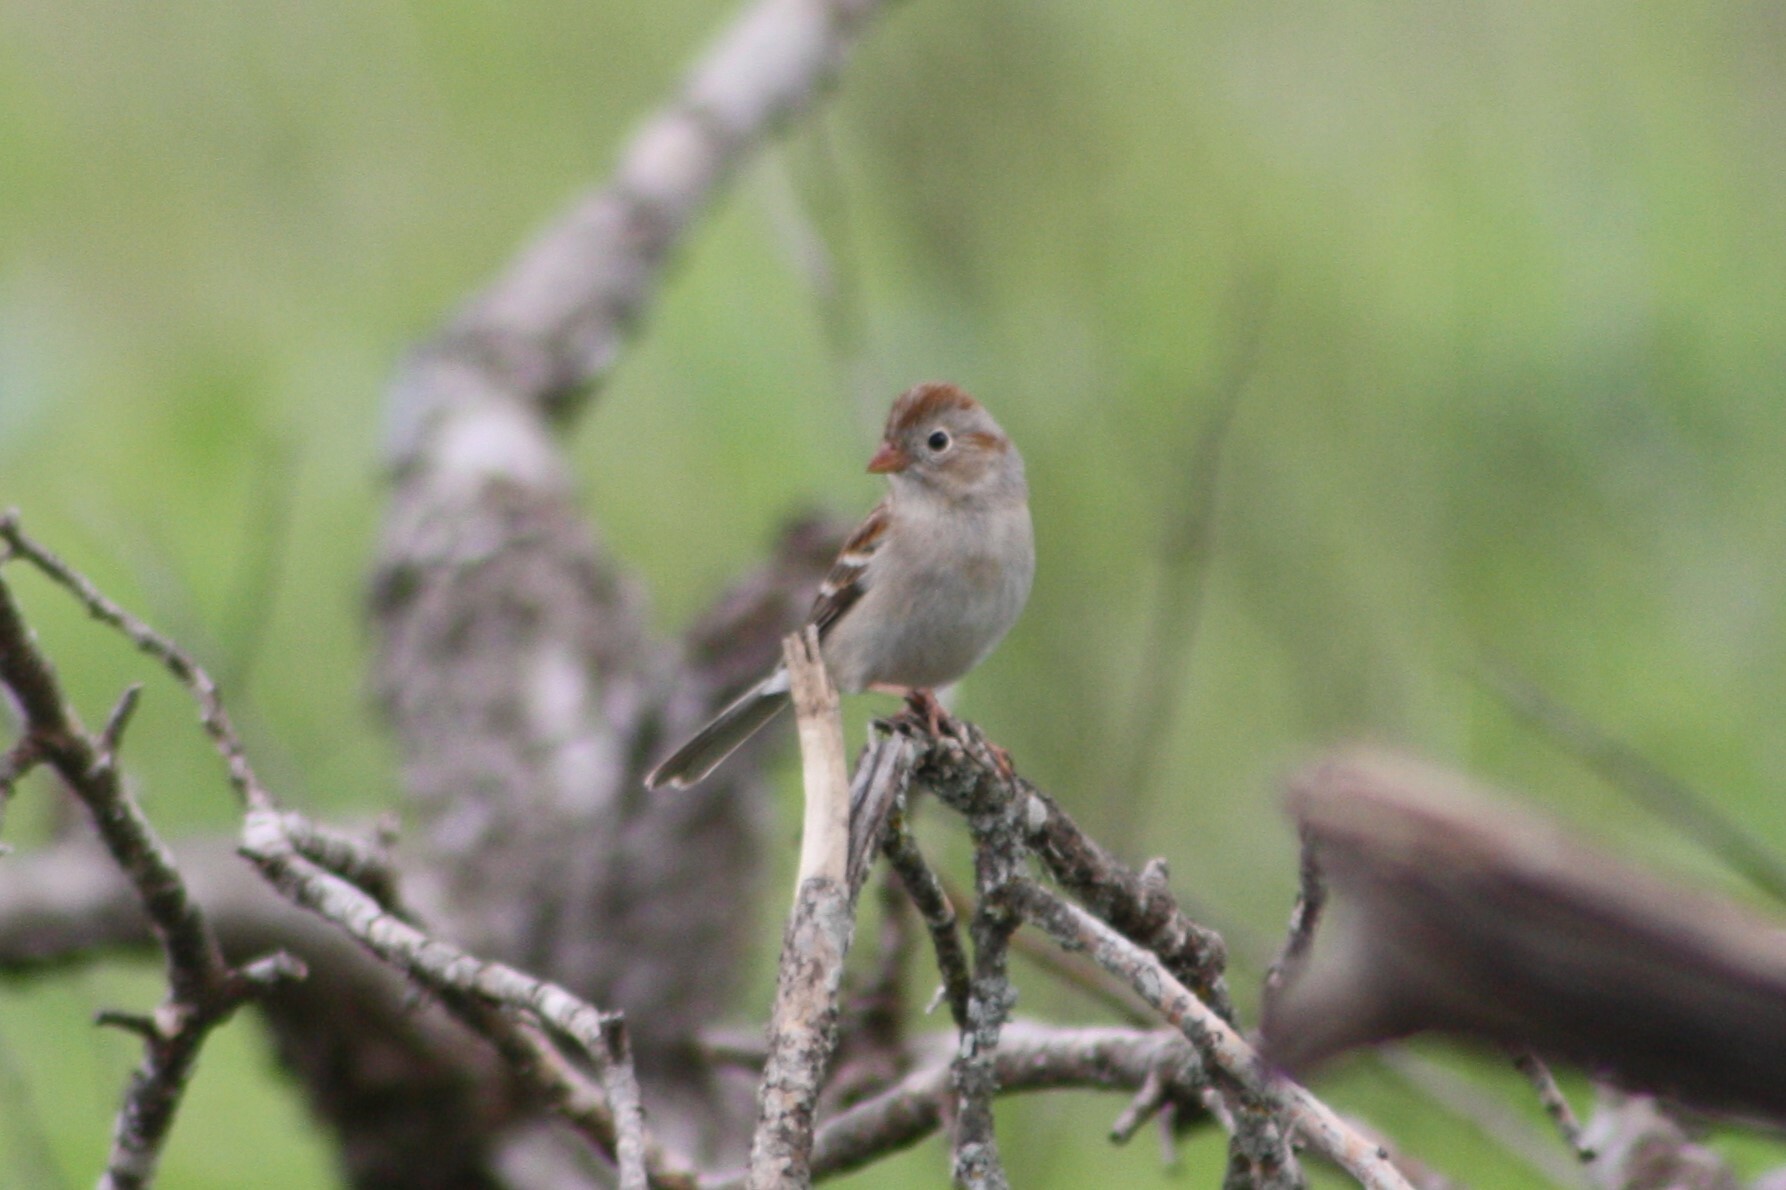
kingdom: Animalia
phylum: Chordata
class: Aves
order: Passeriformes
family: Passerellidae
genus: Spizella
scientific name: Spizella pusilla
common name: Field sparrow
